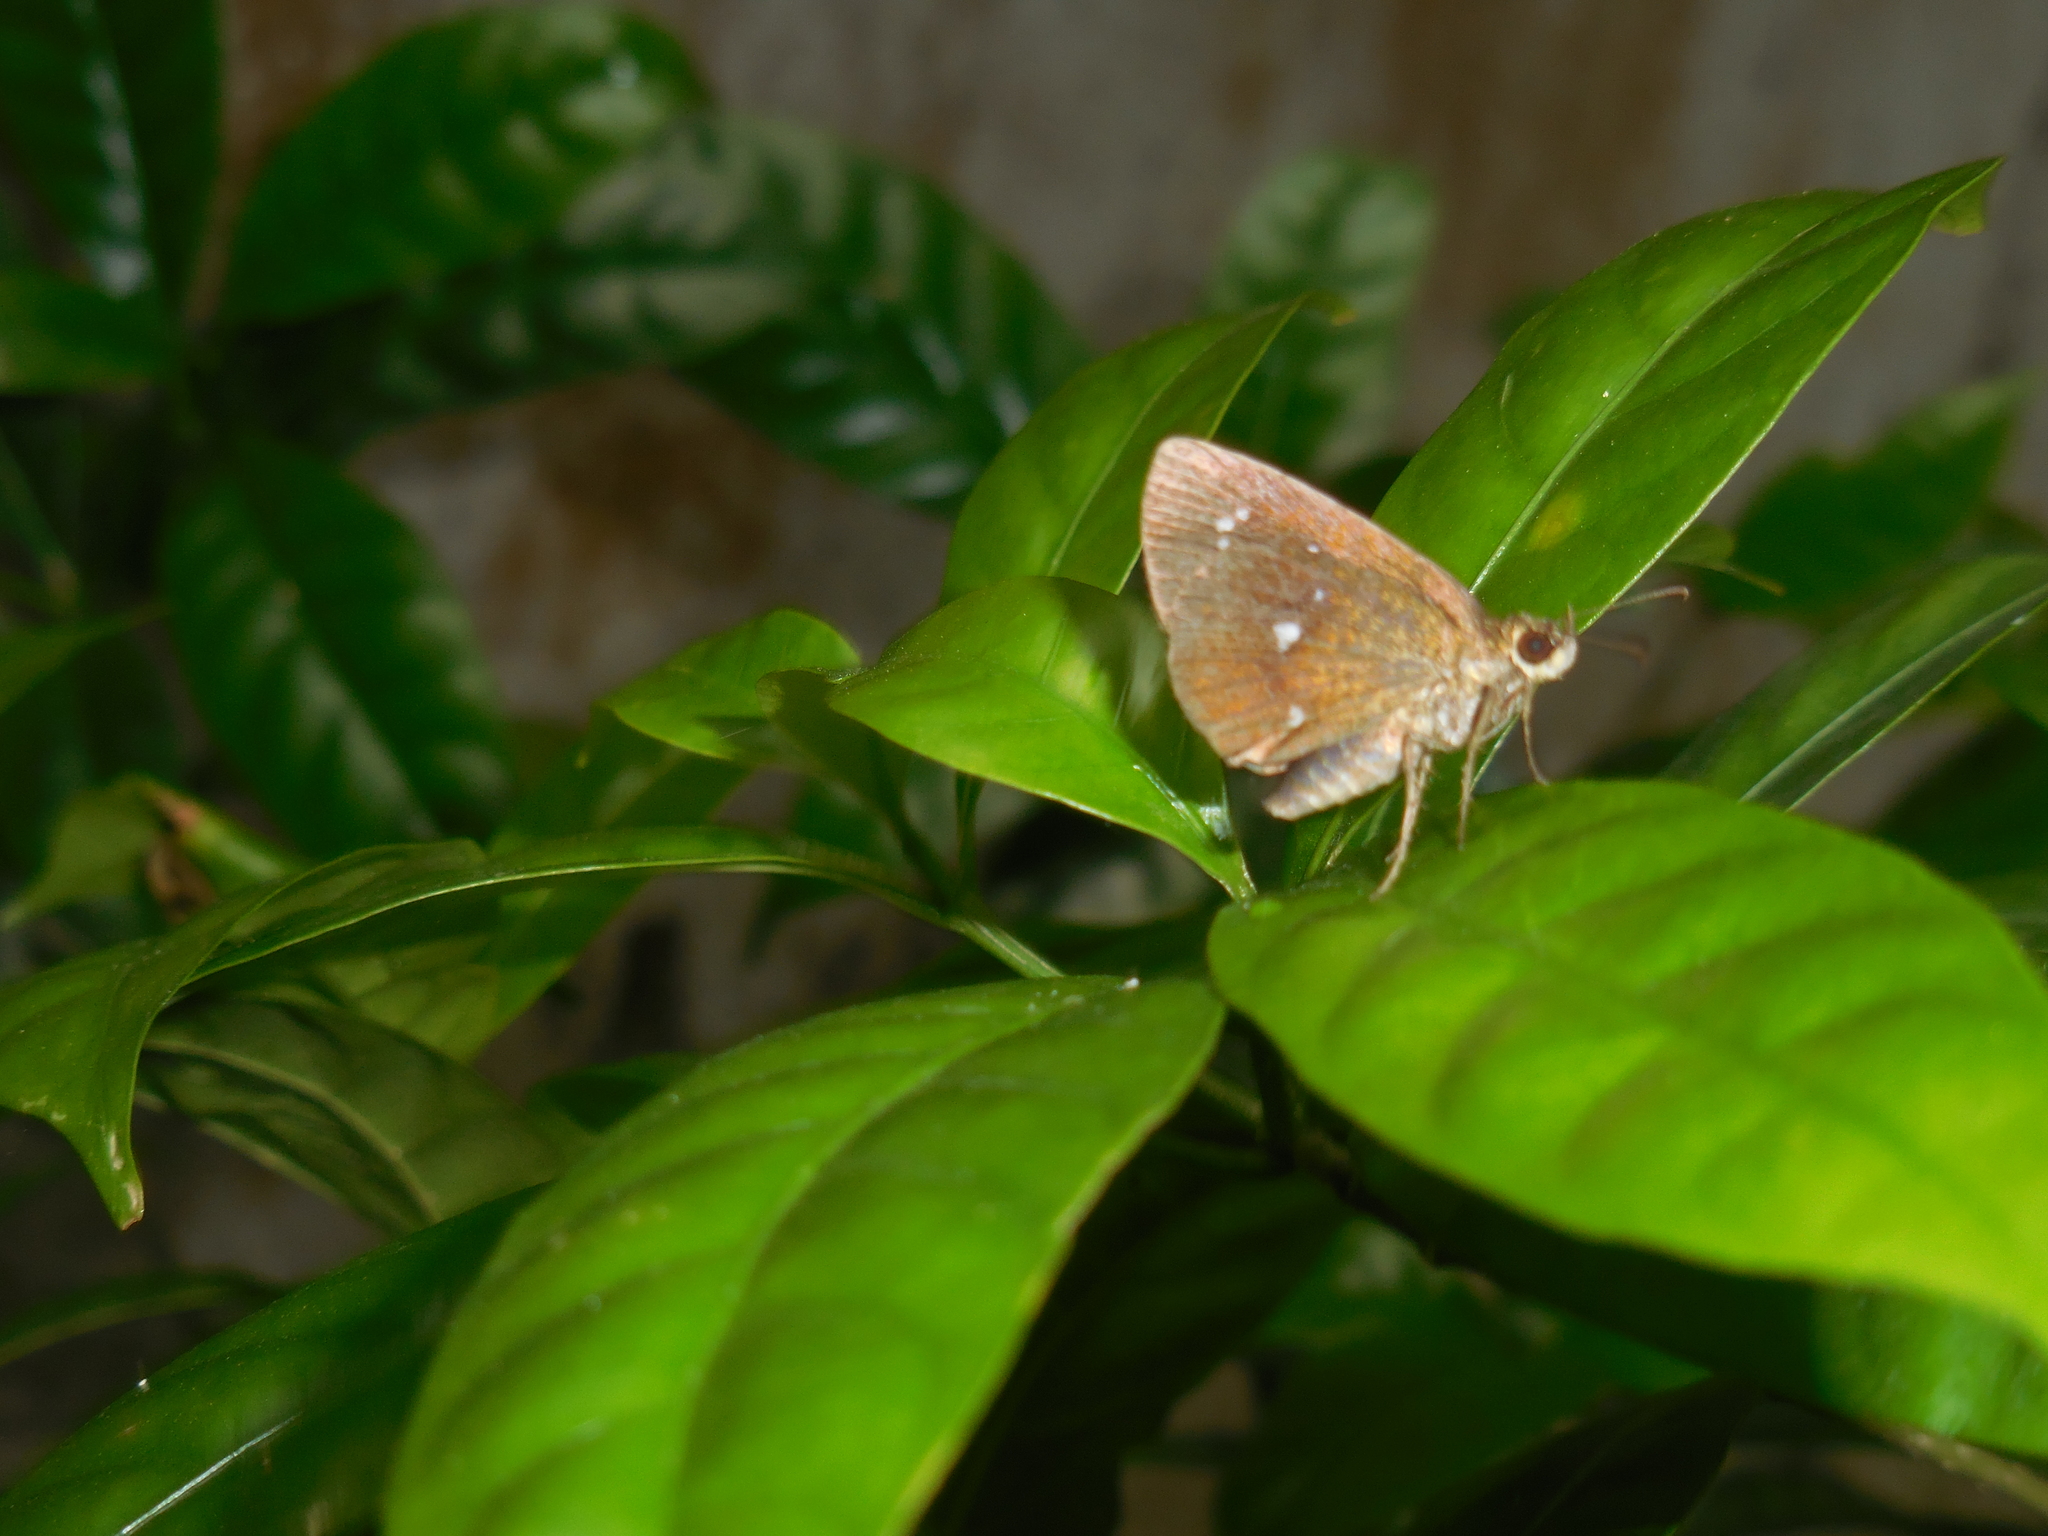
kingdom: Animalia
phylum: Arthropoda
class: Insecta
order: Lepidoptera
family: Hesperiidae
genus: Iambrix
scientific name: Iambrix salsala
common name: Chestnut bob
